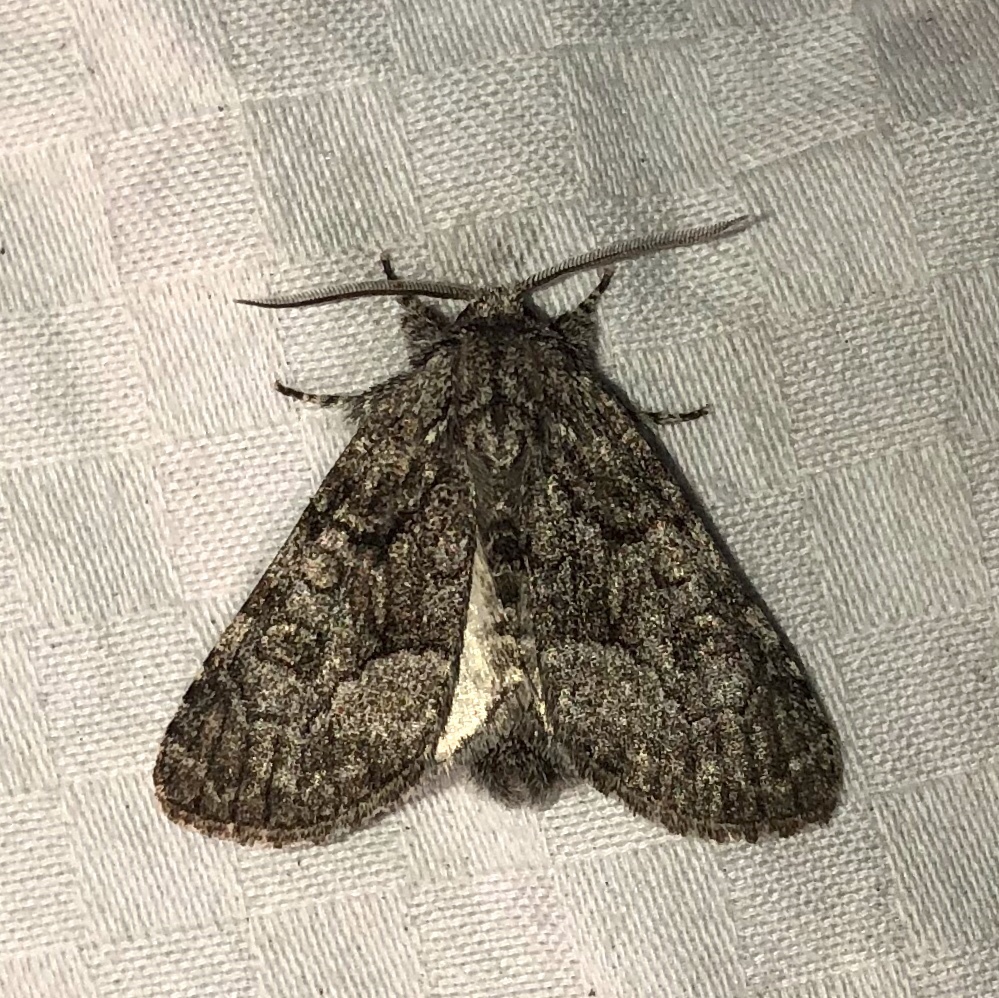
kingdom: Animalia
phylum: Arthropoda
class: Insecta
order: Lepidoptera
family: Noctuidae
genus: Raphia
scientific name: Raphia frater
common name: Brother
